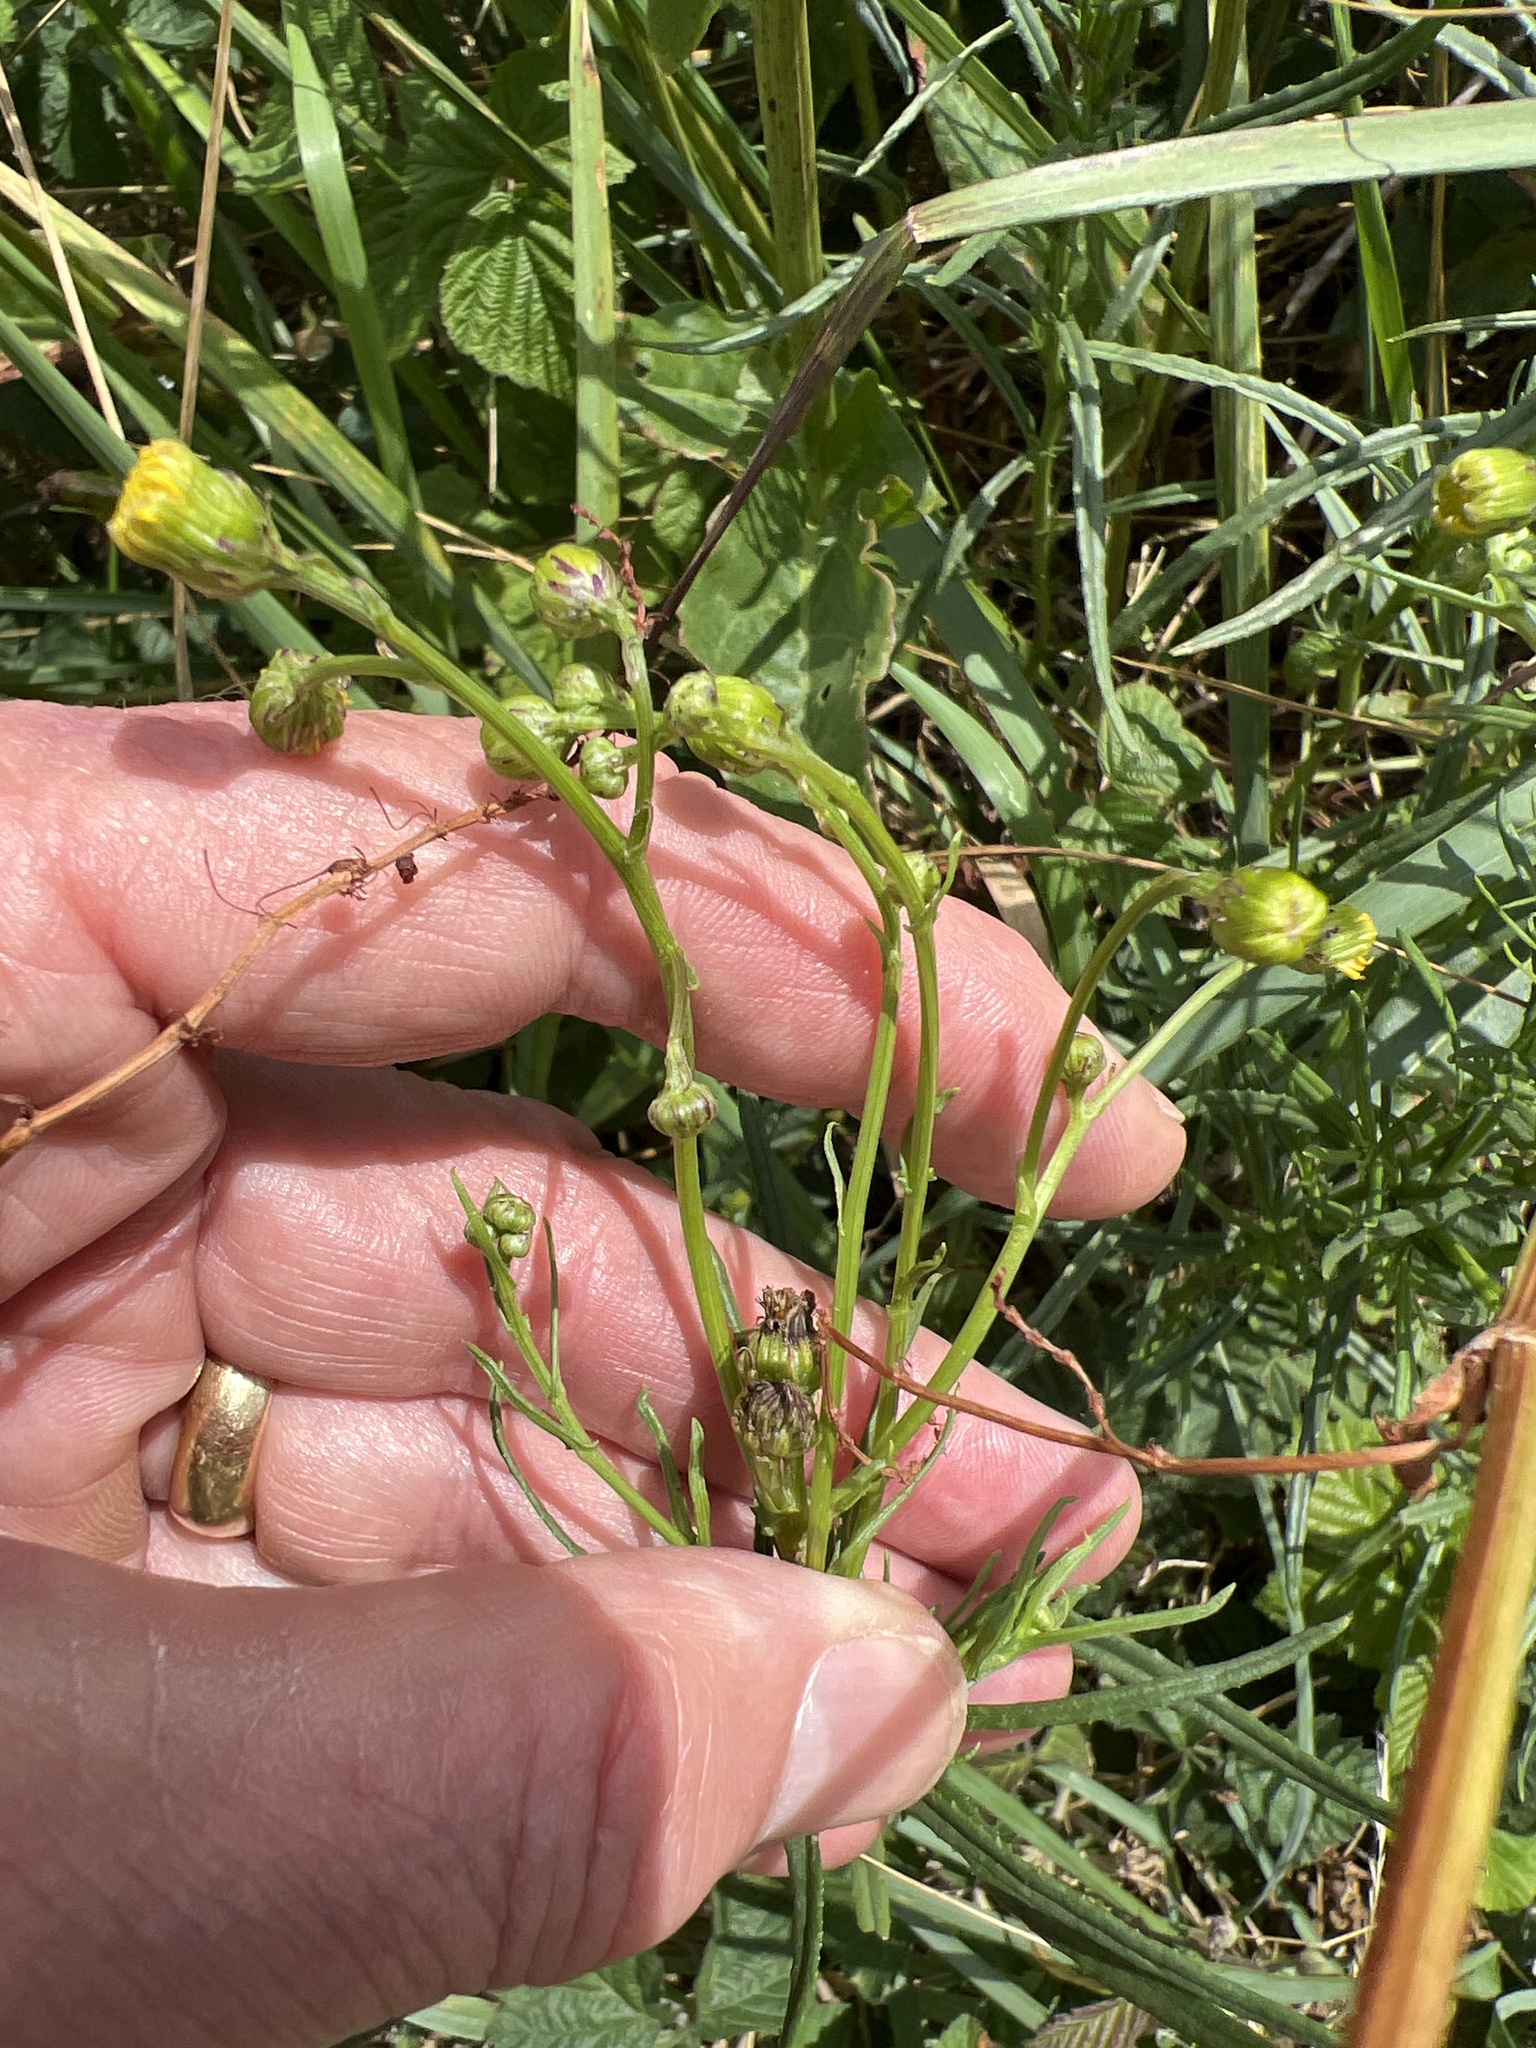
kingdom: Plantae
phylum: Tracheophyta
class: Magnoliopsida
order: Asterales
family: Asteraceae
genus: Senecio
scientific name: Senecio inaequidens
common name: Narrow-leaved ragwort
